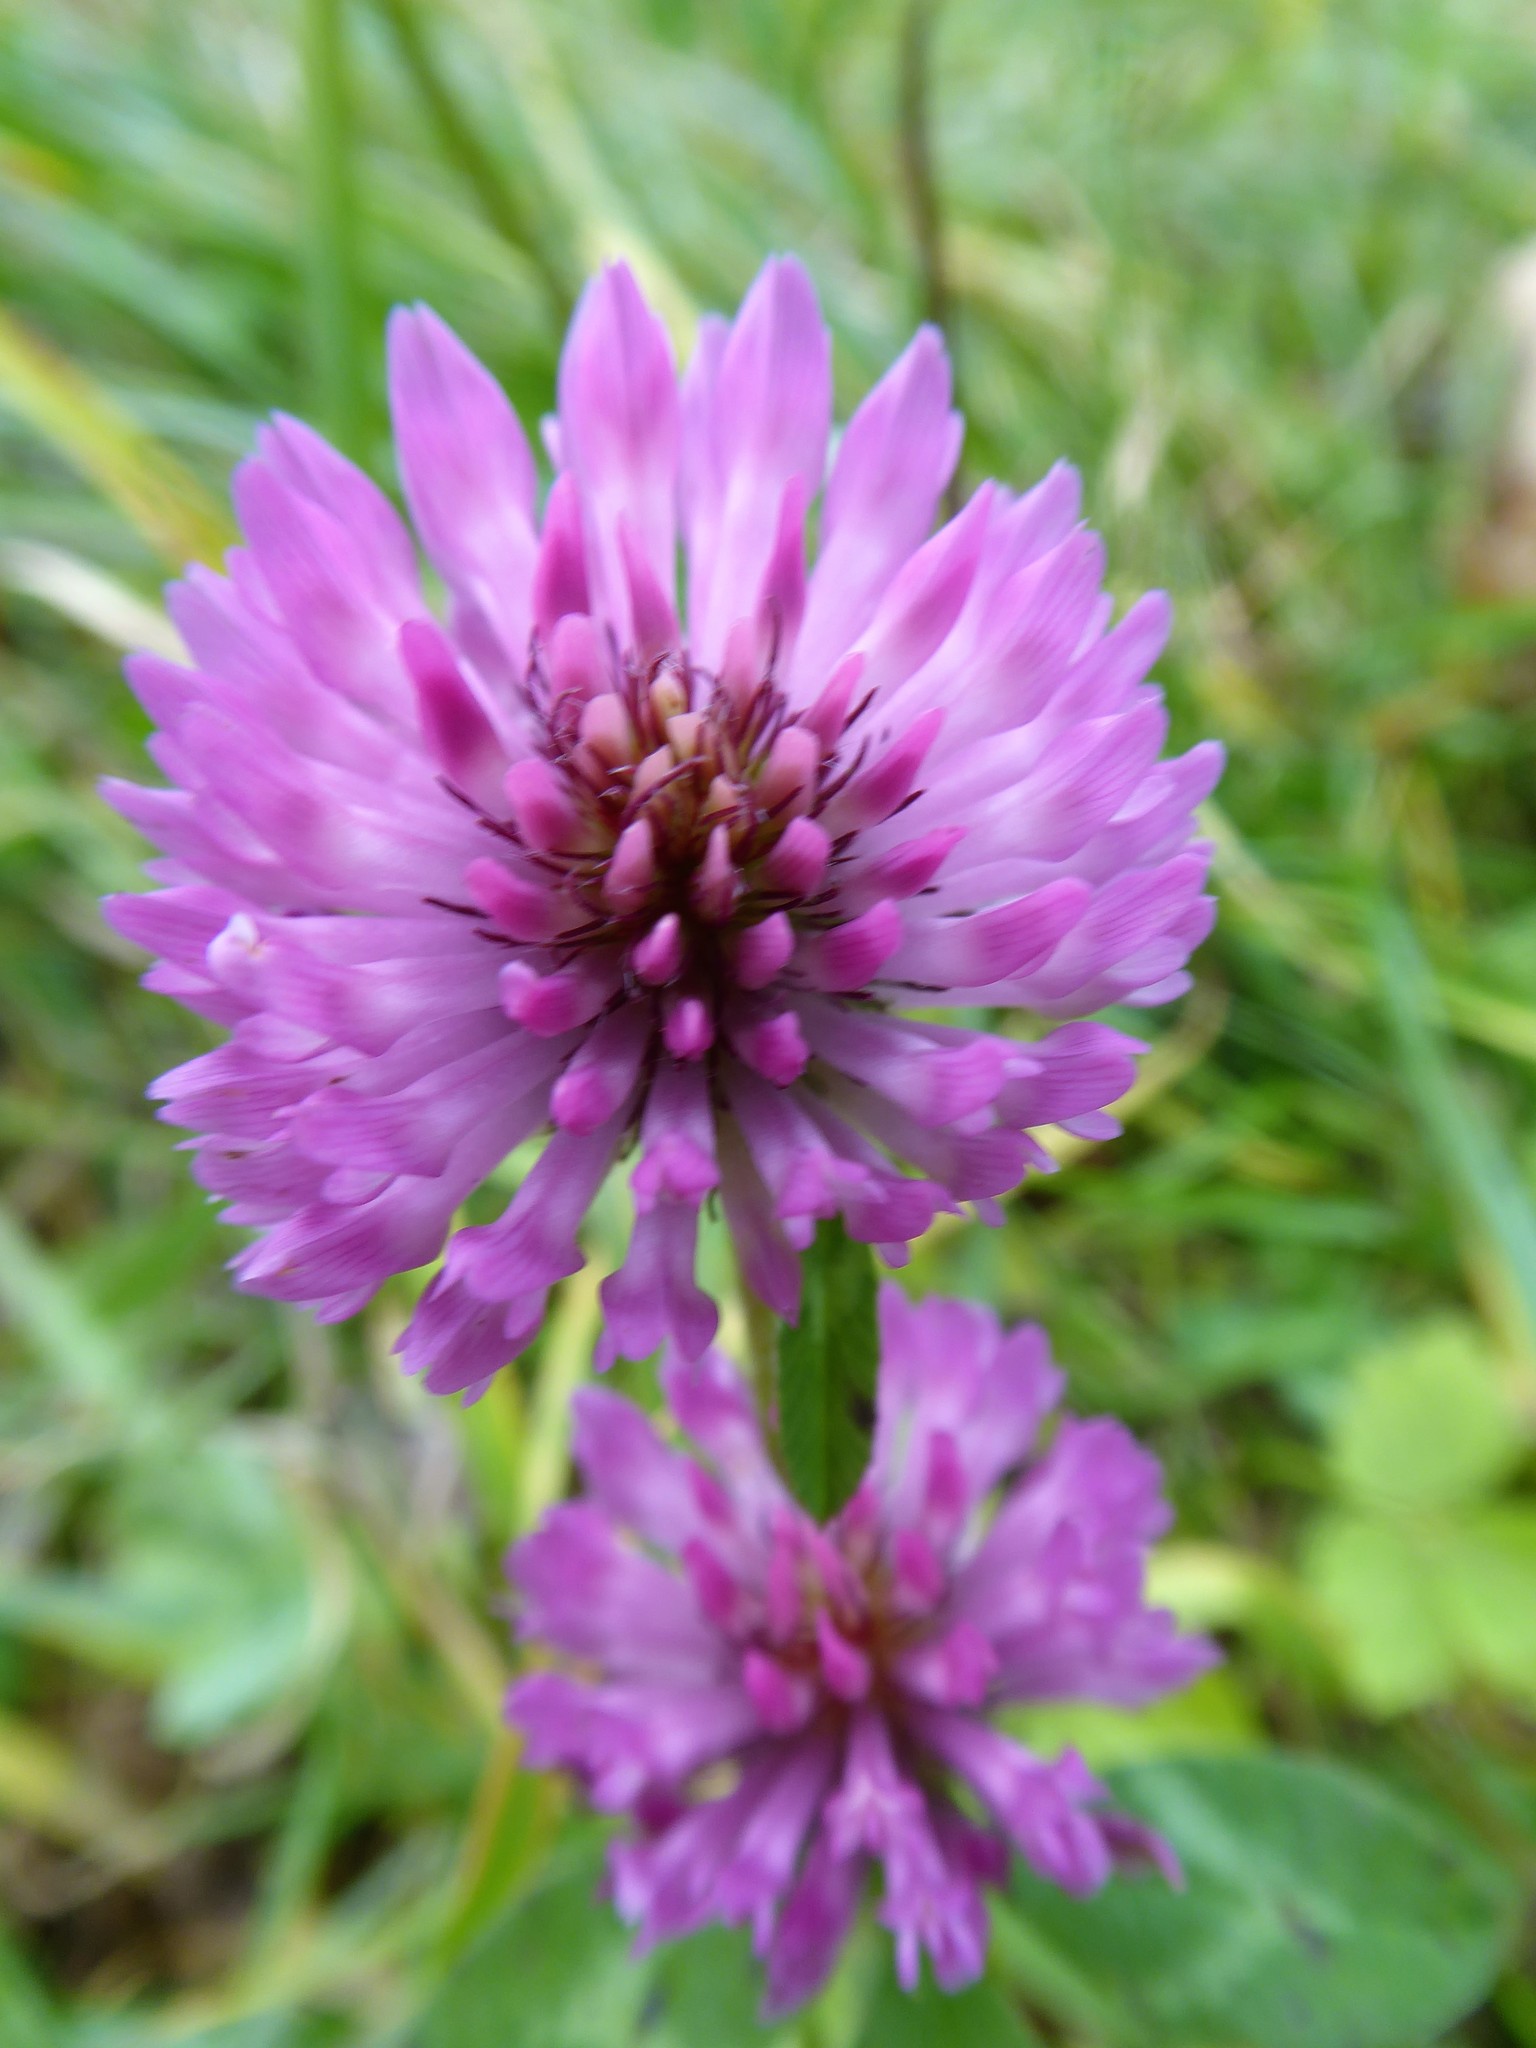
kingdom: Plantae
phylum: Tracheophyta
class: Magnoliopsida
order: Fabales
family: Fabaceae
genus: Trifolium
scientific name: Trifolium pratense
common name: Red clover
